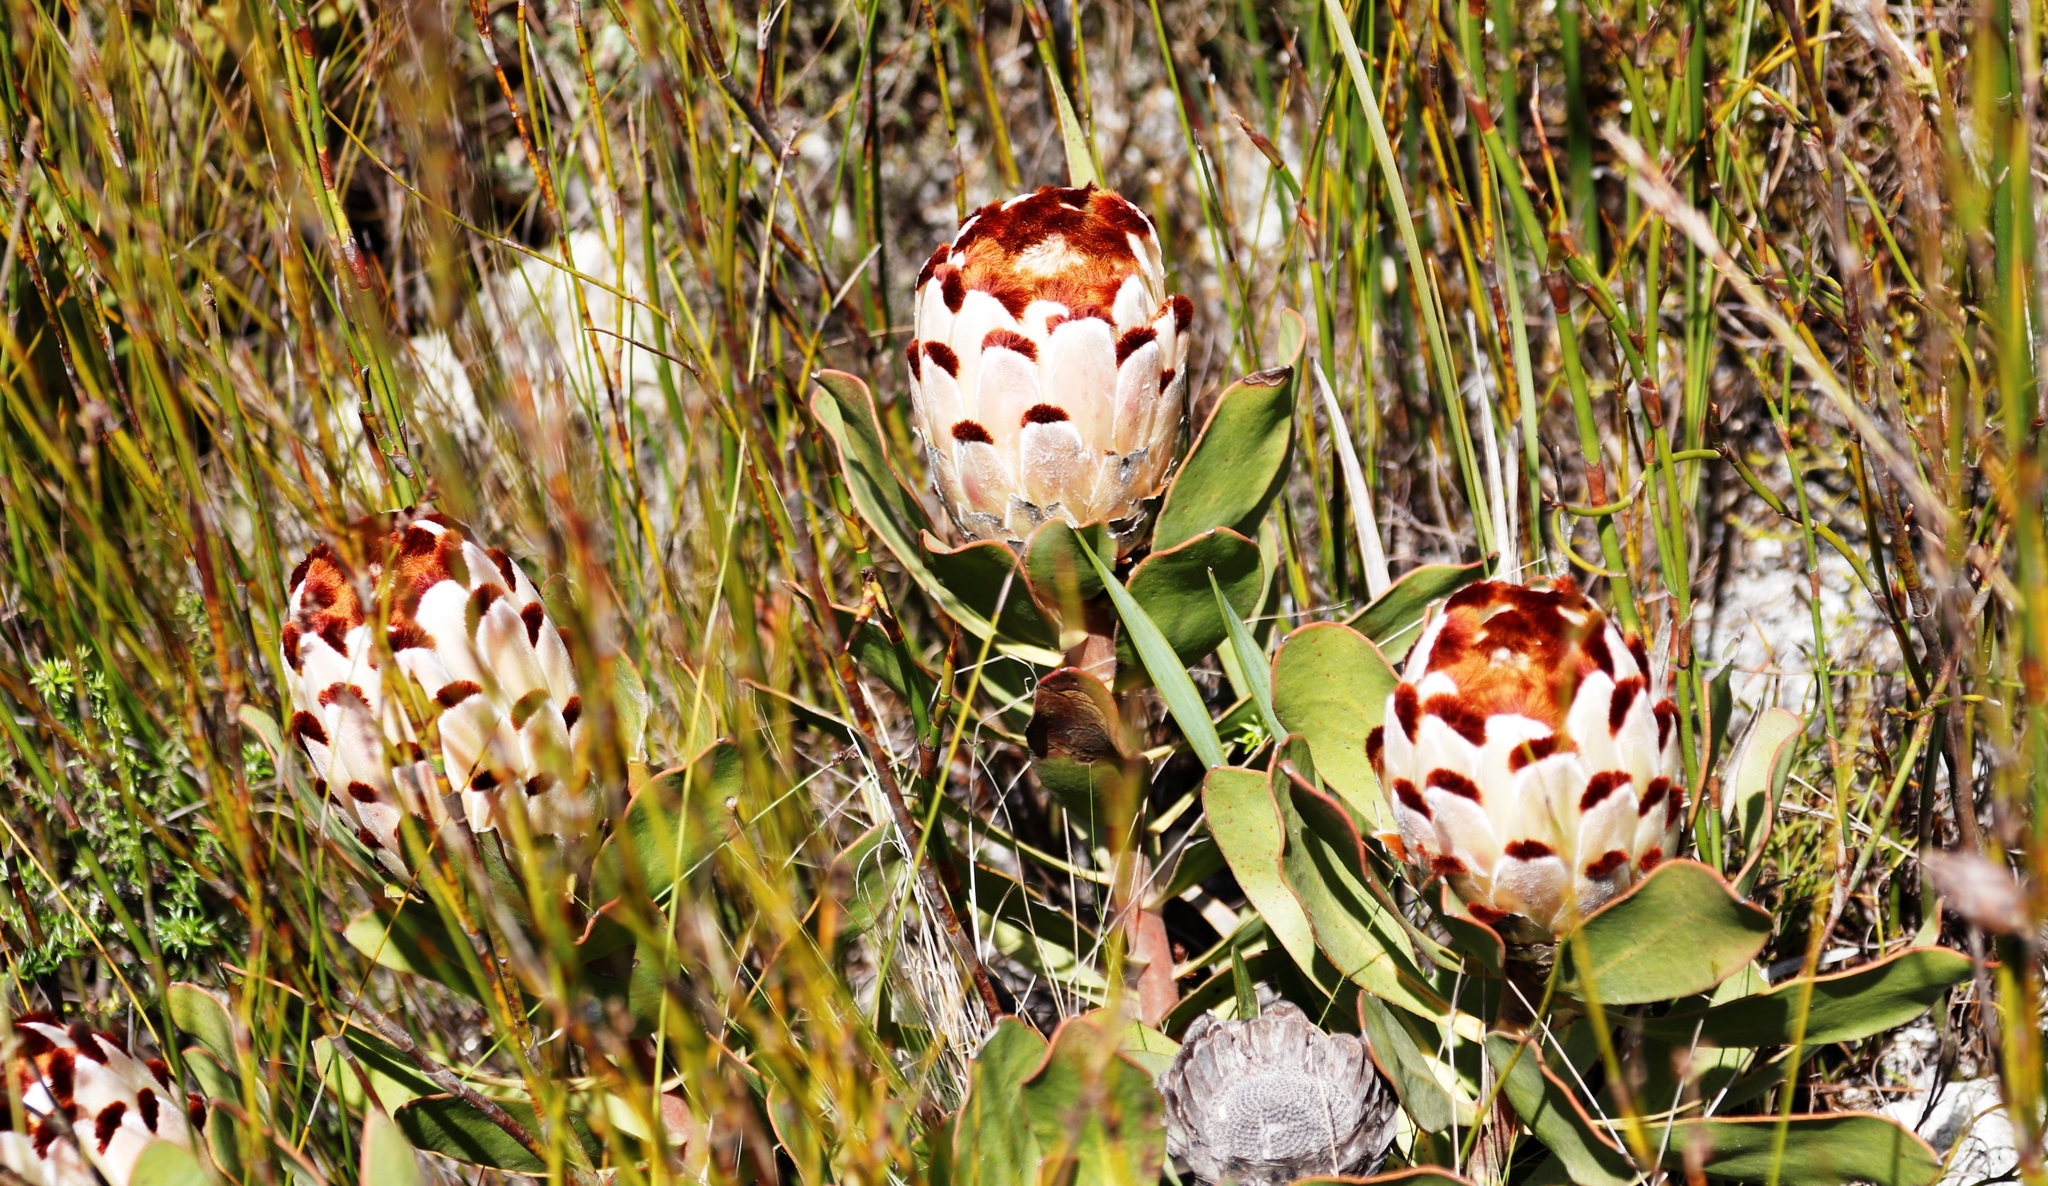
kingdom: Plantae
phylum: Tracheophyta
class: Magnoliopsida
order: Proteales
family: Proteaceae
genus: Protea
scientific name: Protea speciosa
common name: Brown-beard sugarbush
